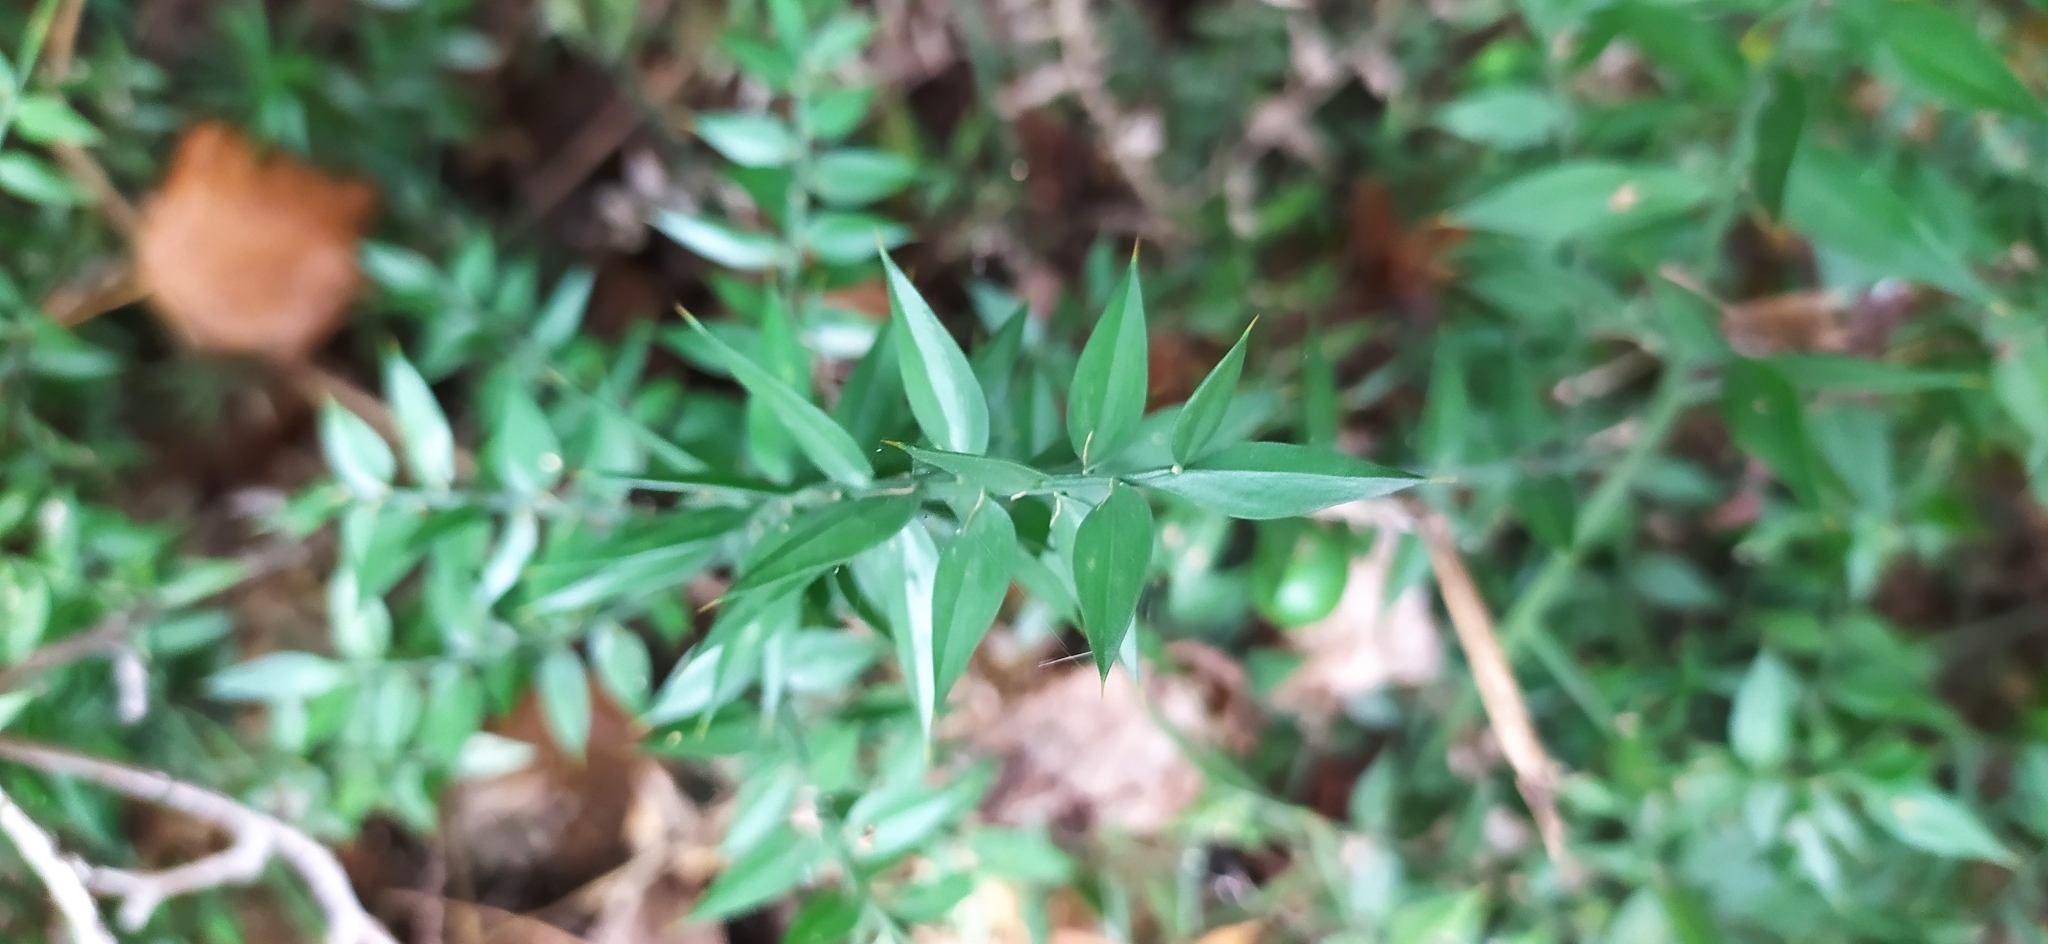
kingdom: Plantae
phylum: Tracheophyta
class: Liliopsida
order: Asparagales
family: Asparagaceae
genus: Ruscus
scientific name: Ruscus aculeatus
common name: Butcher's-broom
